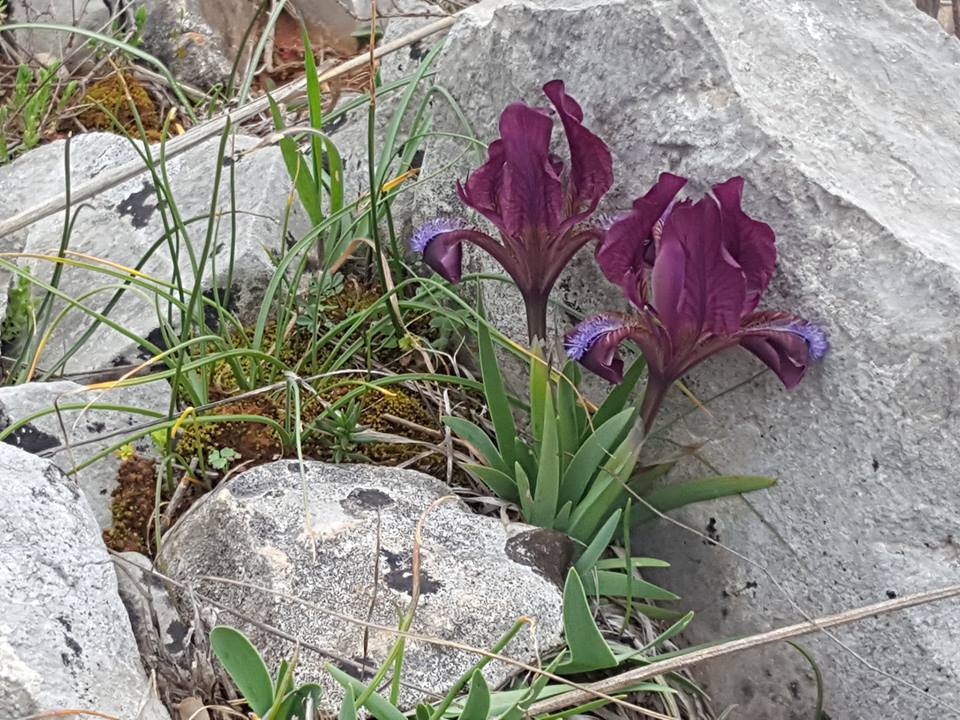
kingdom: Plantae
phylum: Tracheophyta
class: Liliopsida
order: Asparagales
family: Iridaceae
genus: Iris
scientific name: Iris adriatica
